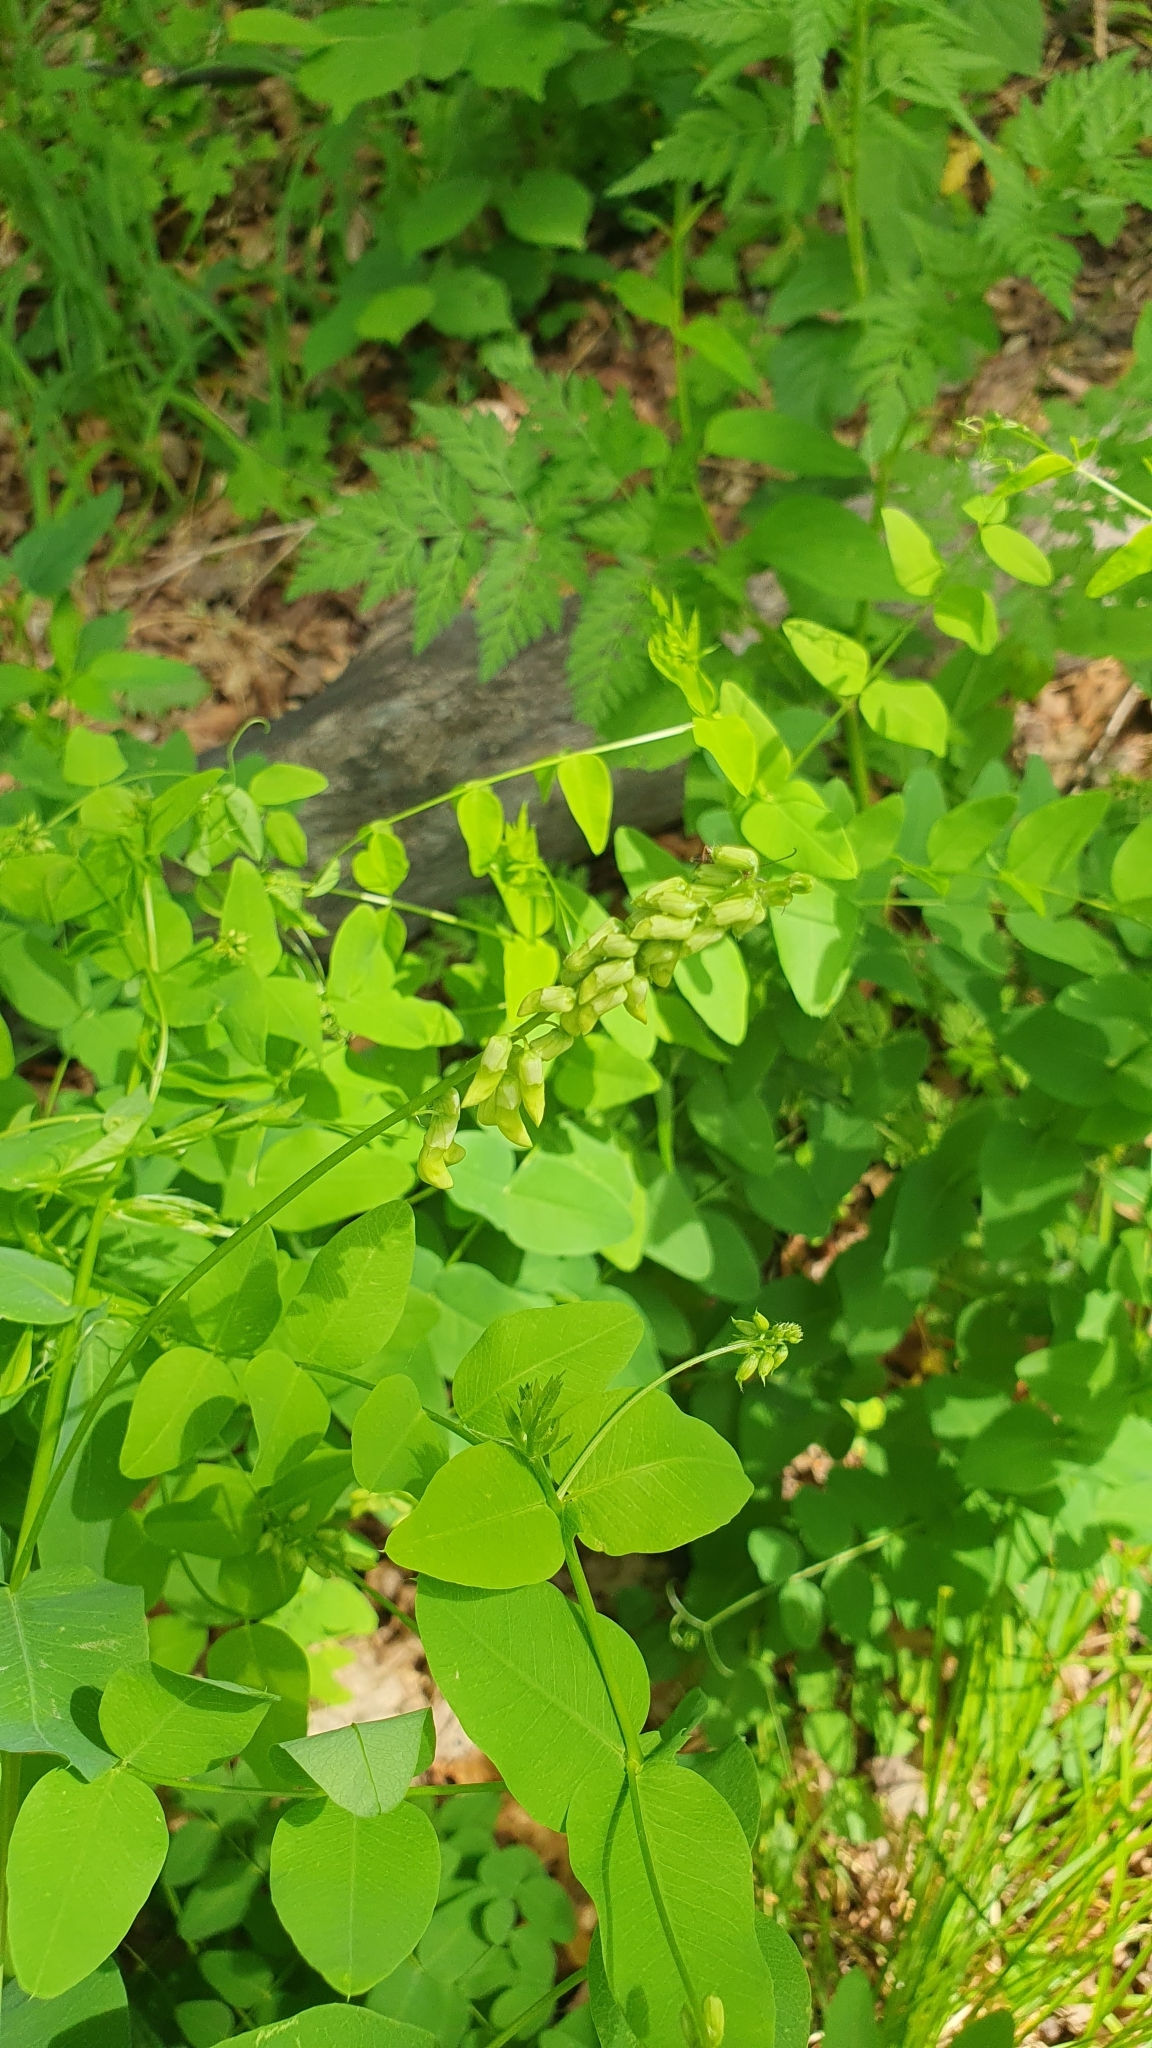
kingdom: Plantae
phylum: Tracheophyta
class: Magnoliopsida
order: Fabales
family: Fabaceae
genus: Vicia
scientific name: Vicia pisiformis
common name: Pale-flower vetch
